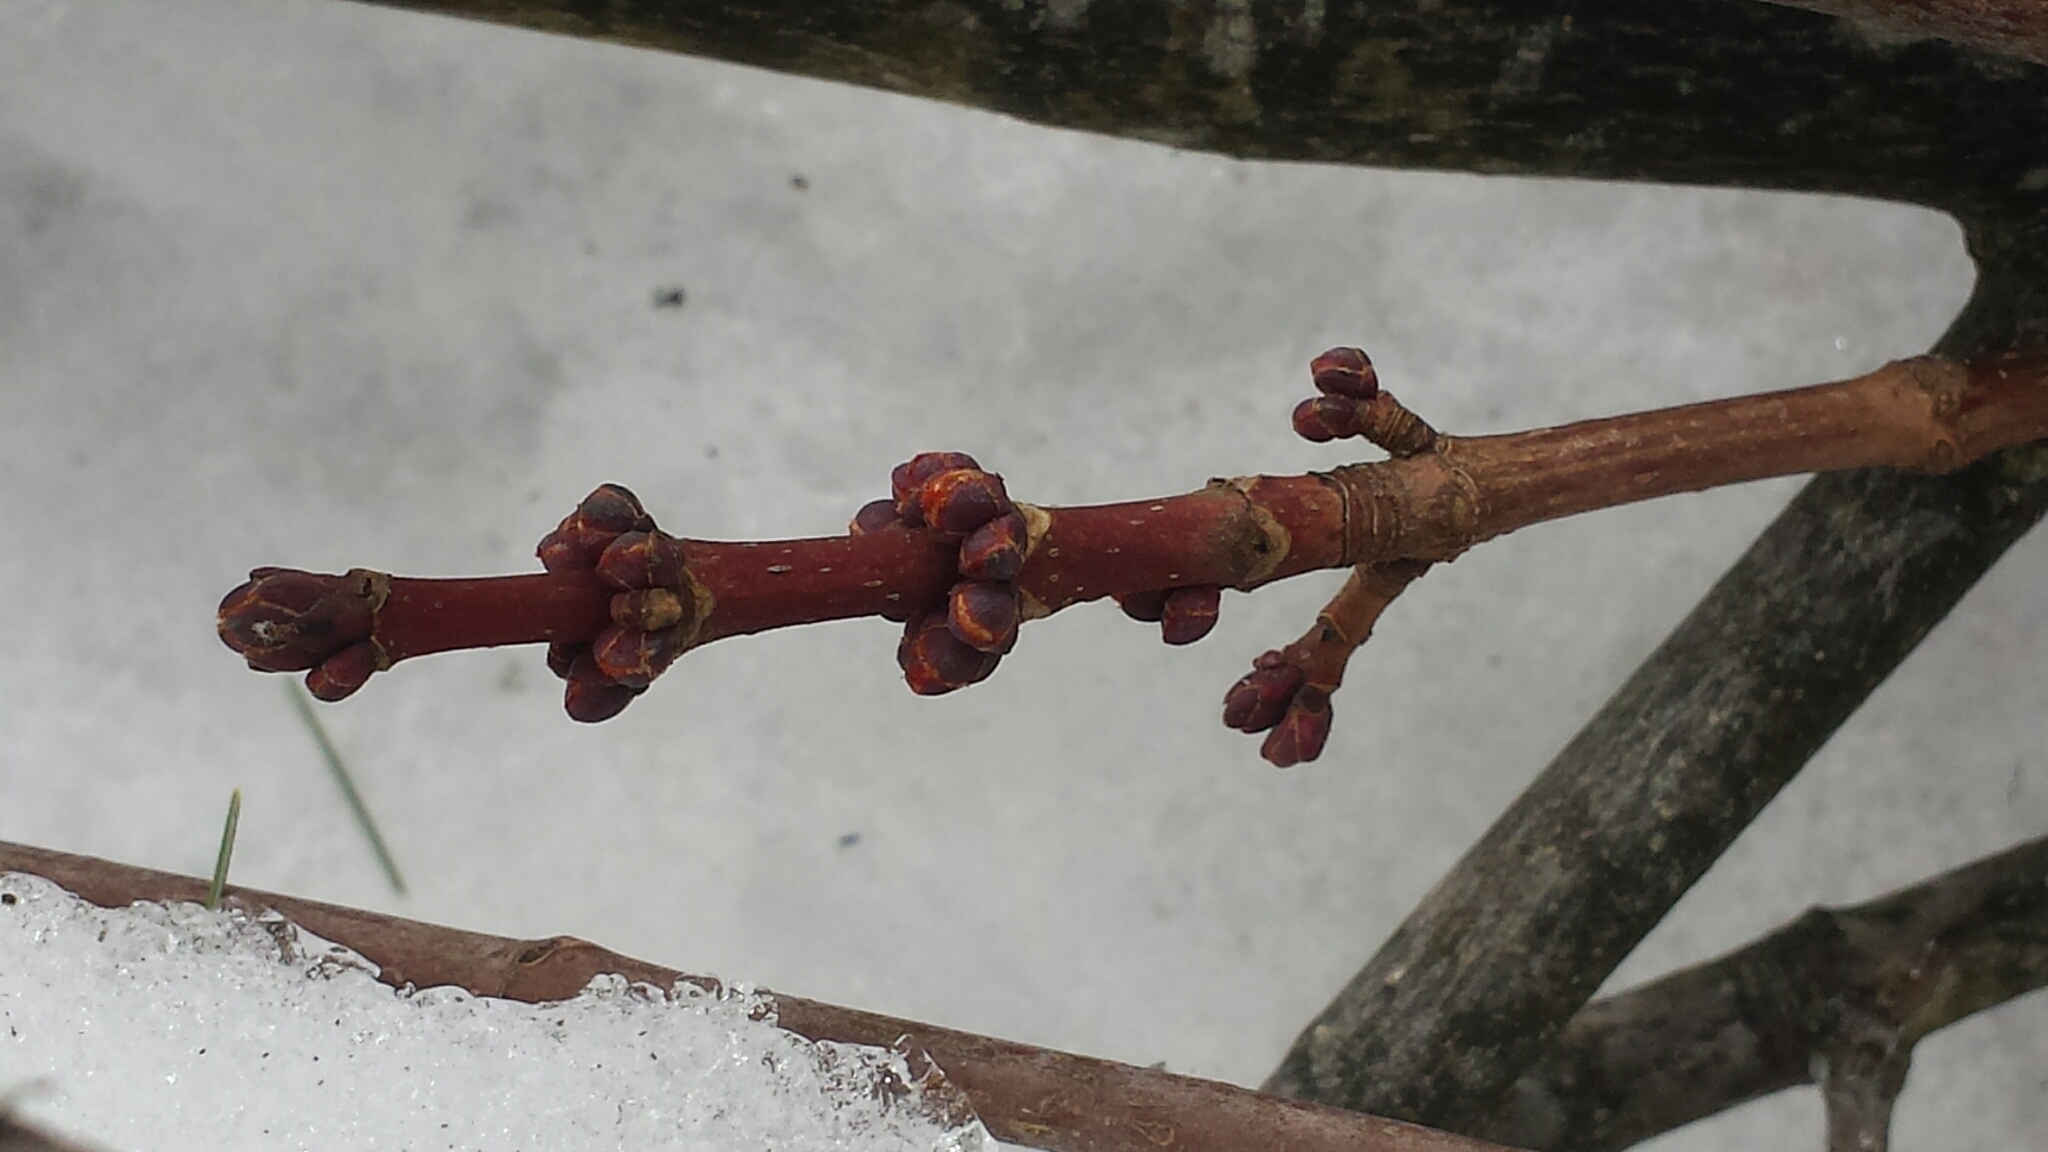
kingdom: Plantae
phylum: Tracheophyta
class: Magnoliopsida
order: Sapindales
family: Sapindaceae
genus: Acer
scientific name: Acer rubrum
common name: Red maple
